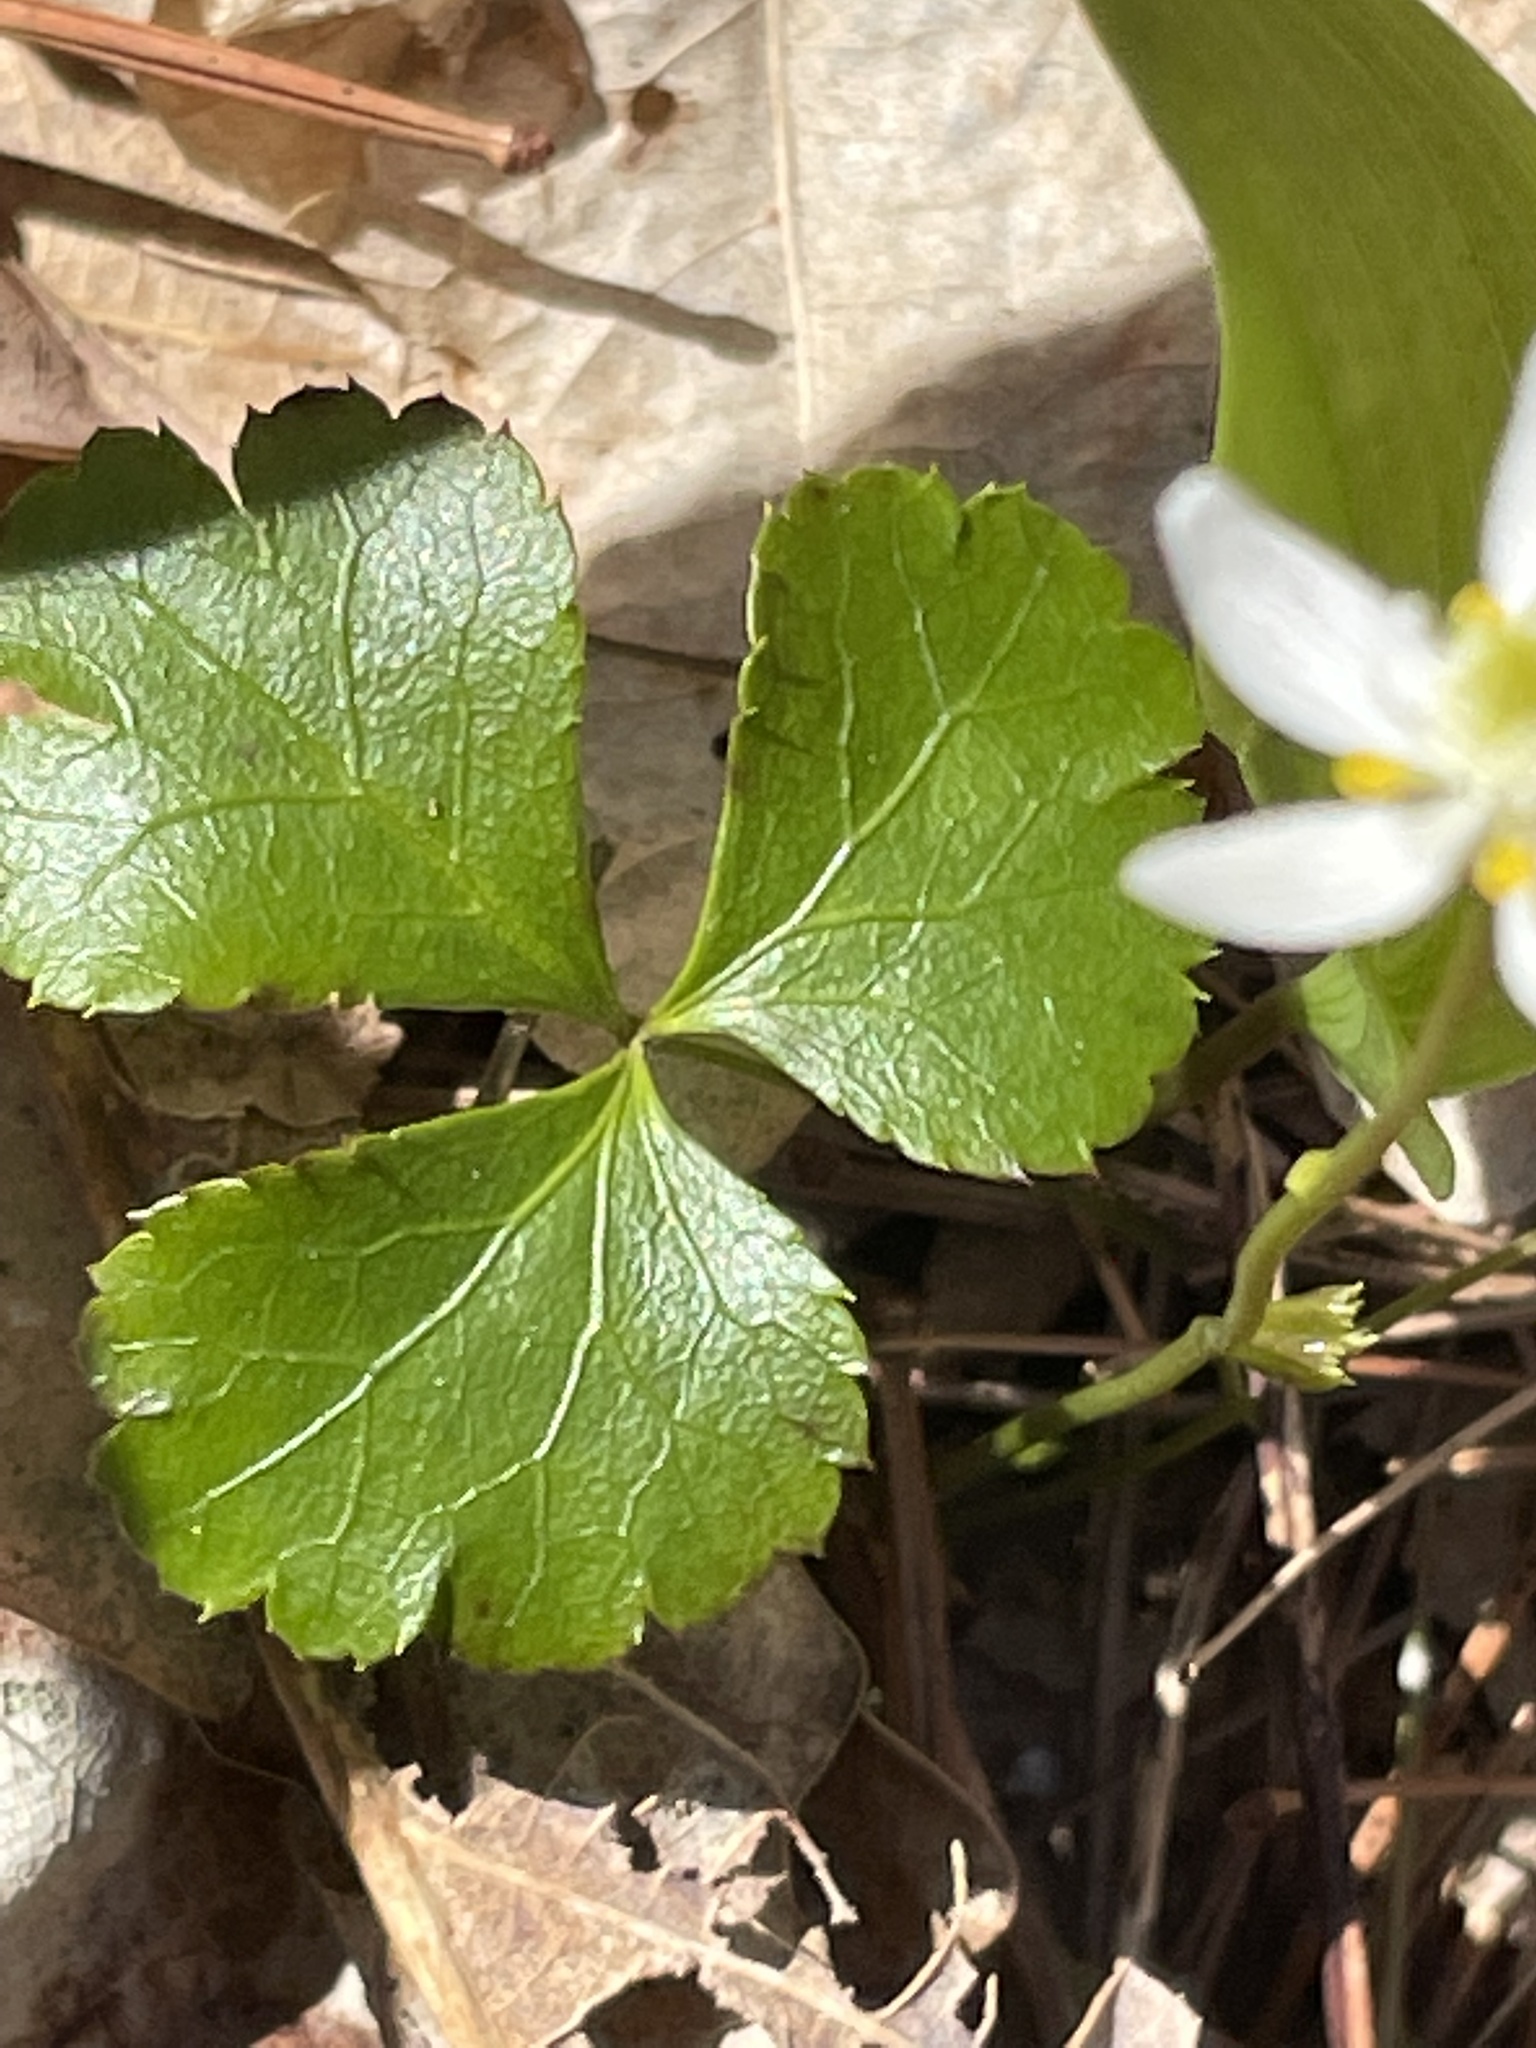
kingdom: Plantae
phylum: Tracheophyta
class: Magnoliopsida
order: Ranunculales
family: Ranunculaceae
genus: Coptis
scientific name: Coptis trifolia
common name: Canker-root
